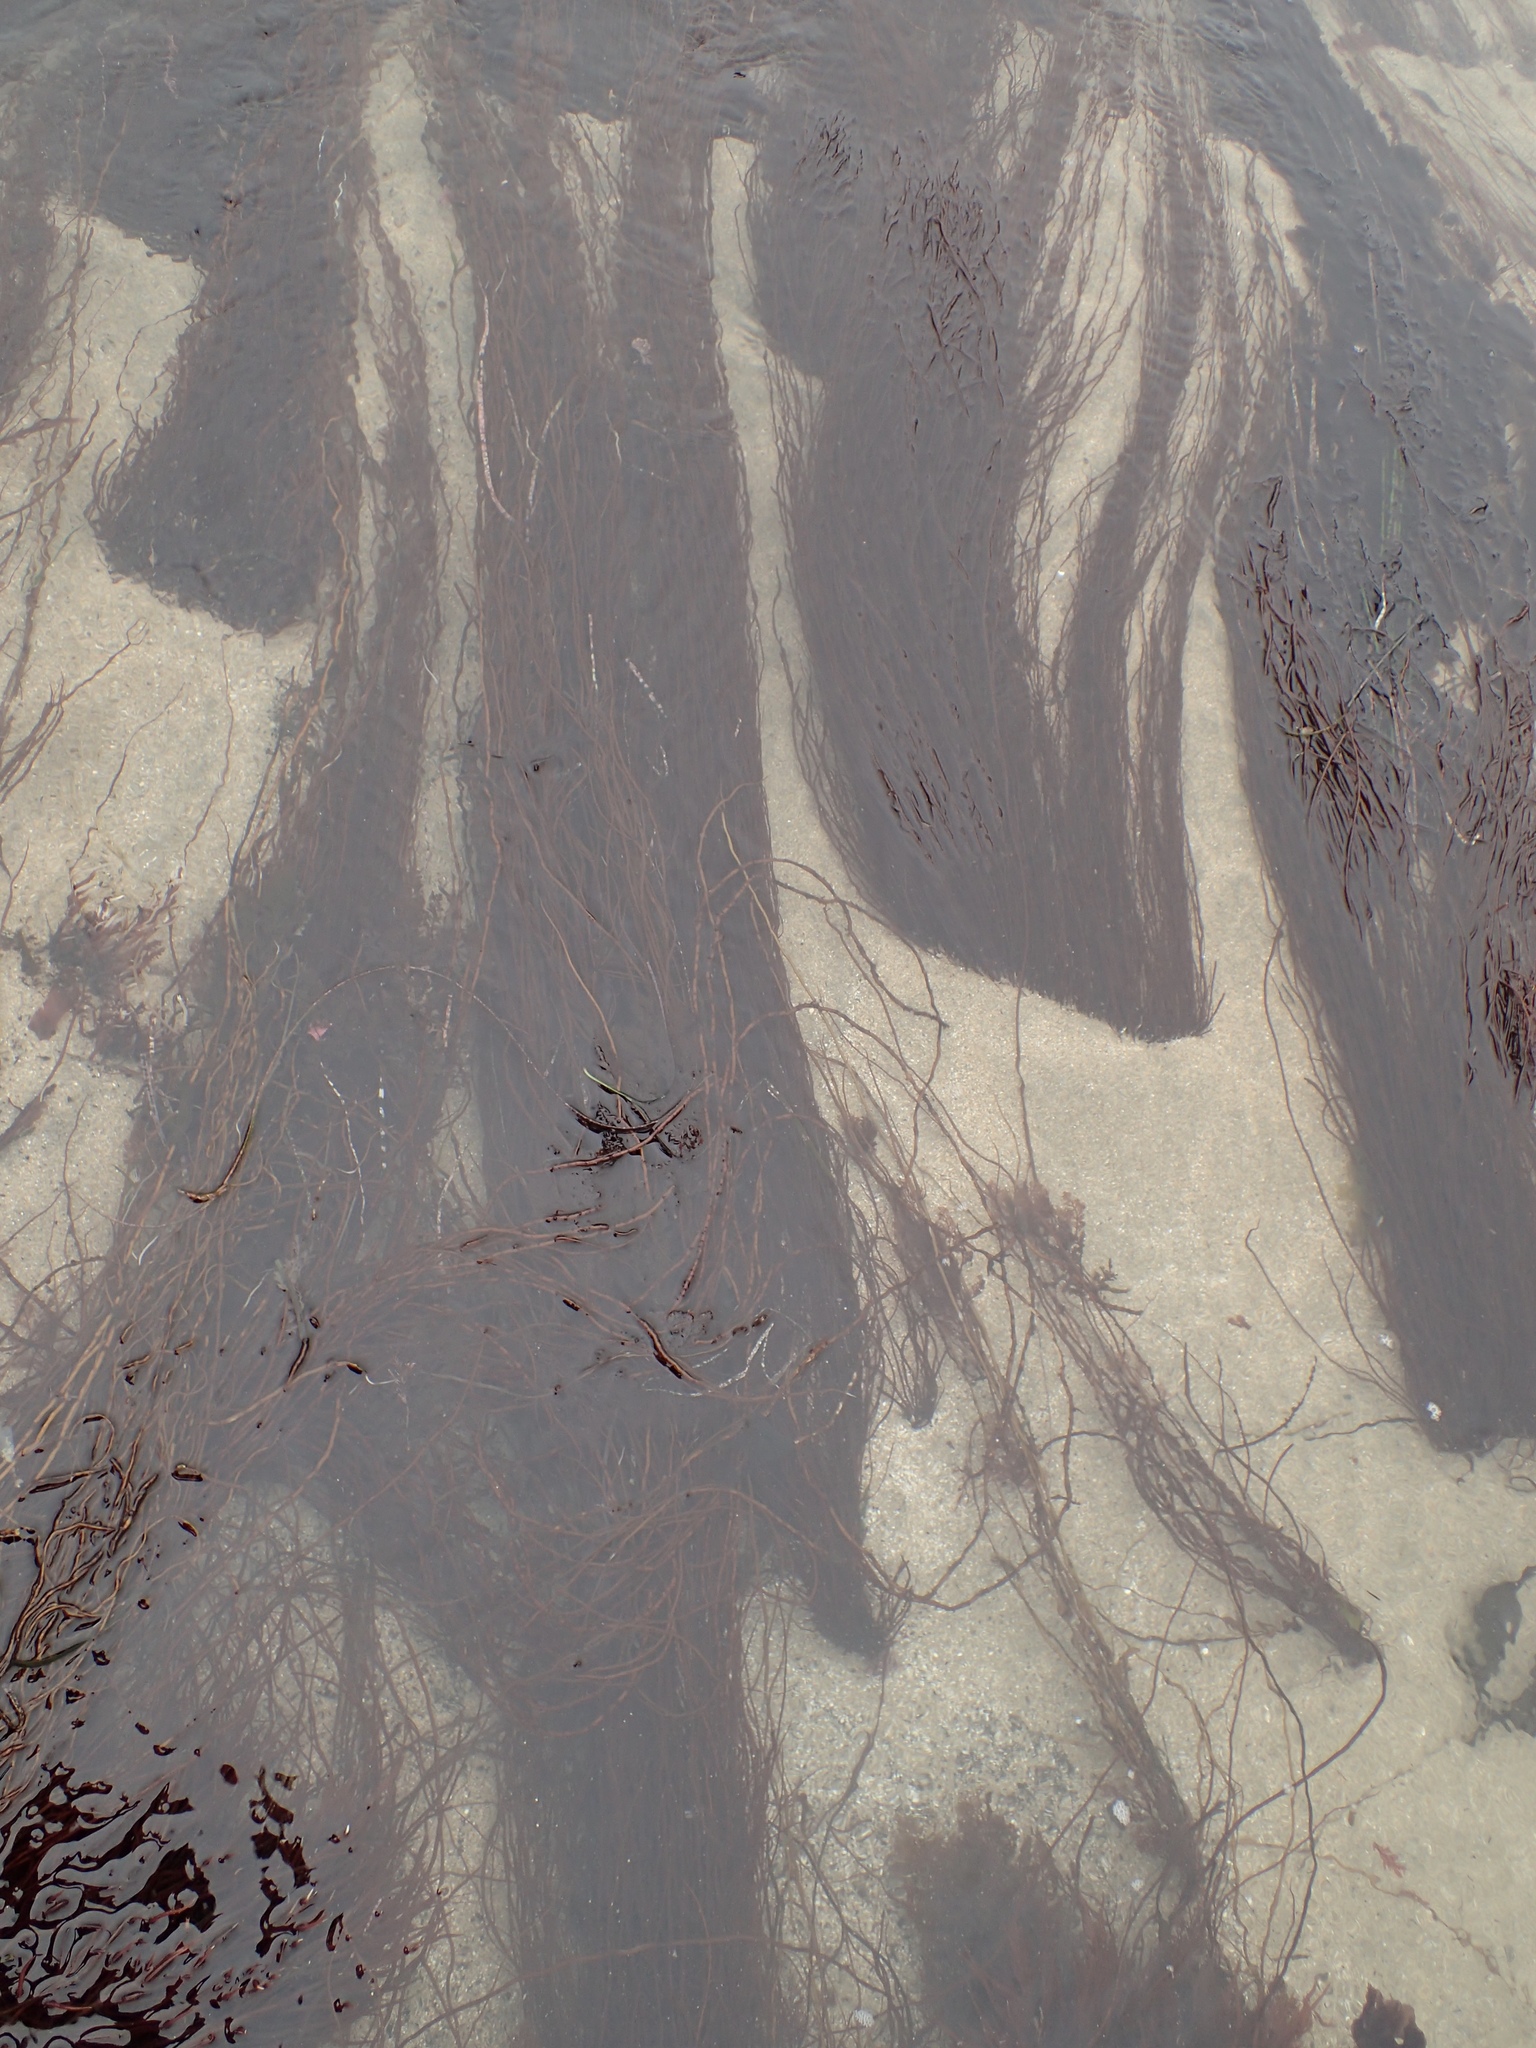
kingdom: Plantae
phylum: Rhodophyta
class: Florideophyceae
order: Gracilariales
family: Gracilariaceae
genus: Gracilariopsis
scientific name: Gracilariopsis andersonii
